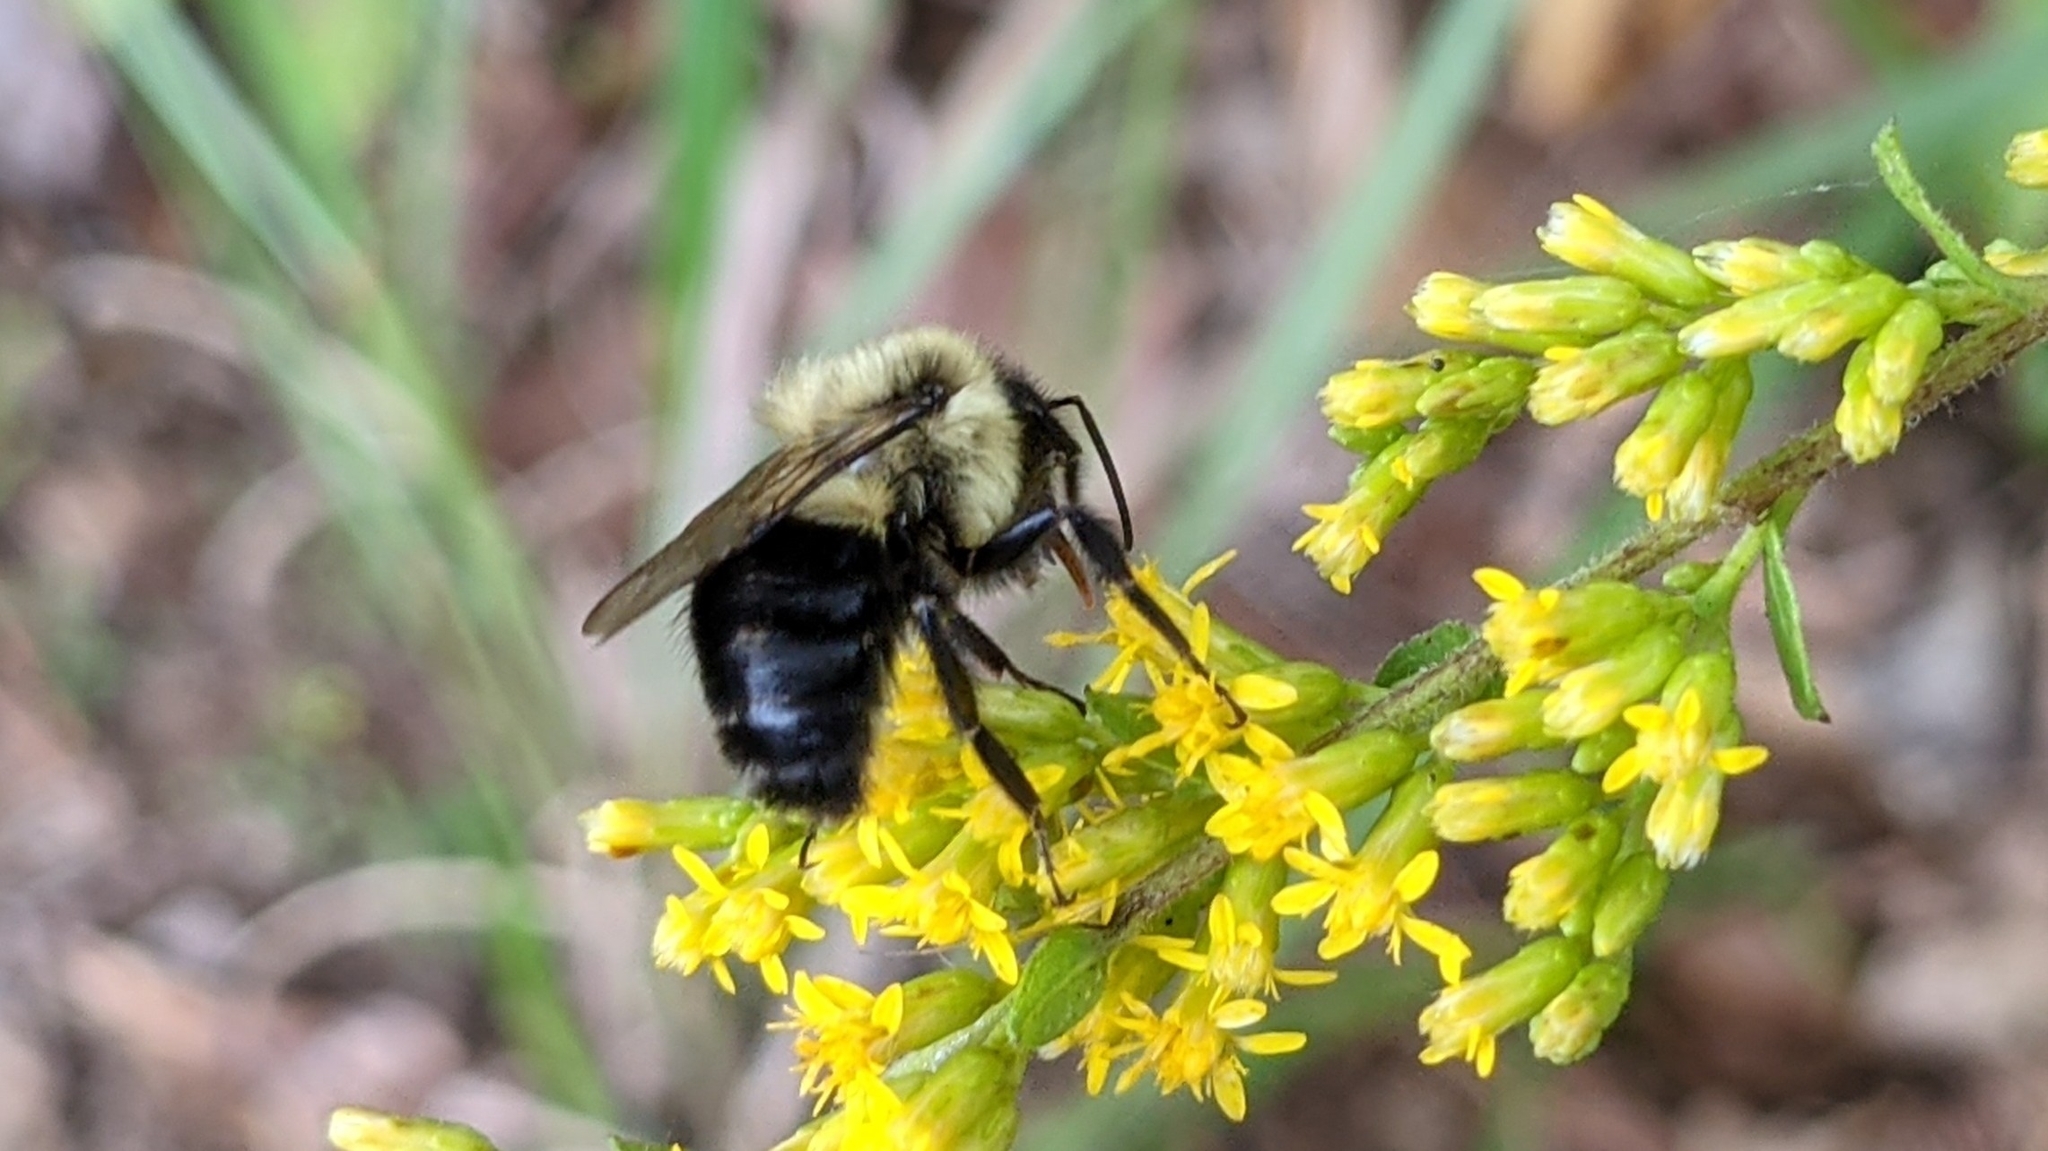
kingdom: Animalia
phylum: Arthropoda
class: Insecta
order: Hymenoptera
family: Apidae
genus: Bombus
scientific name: Bombus impatiens
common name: Common eastern bumble bee
